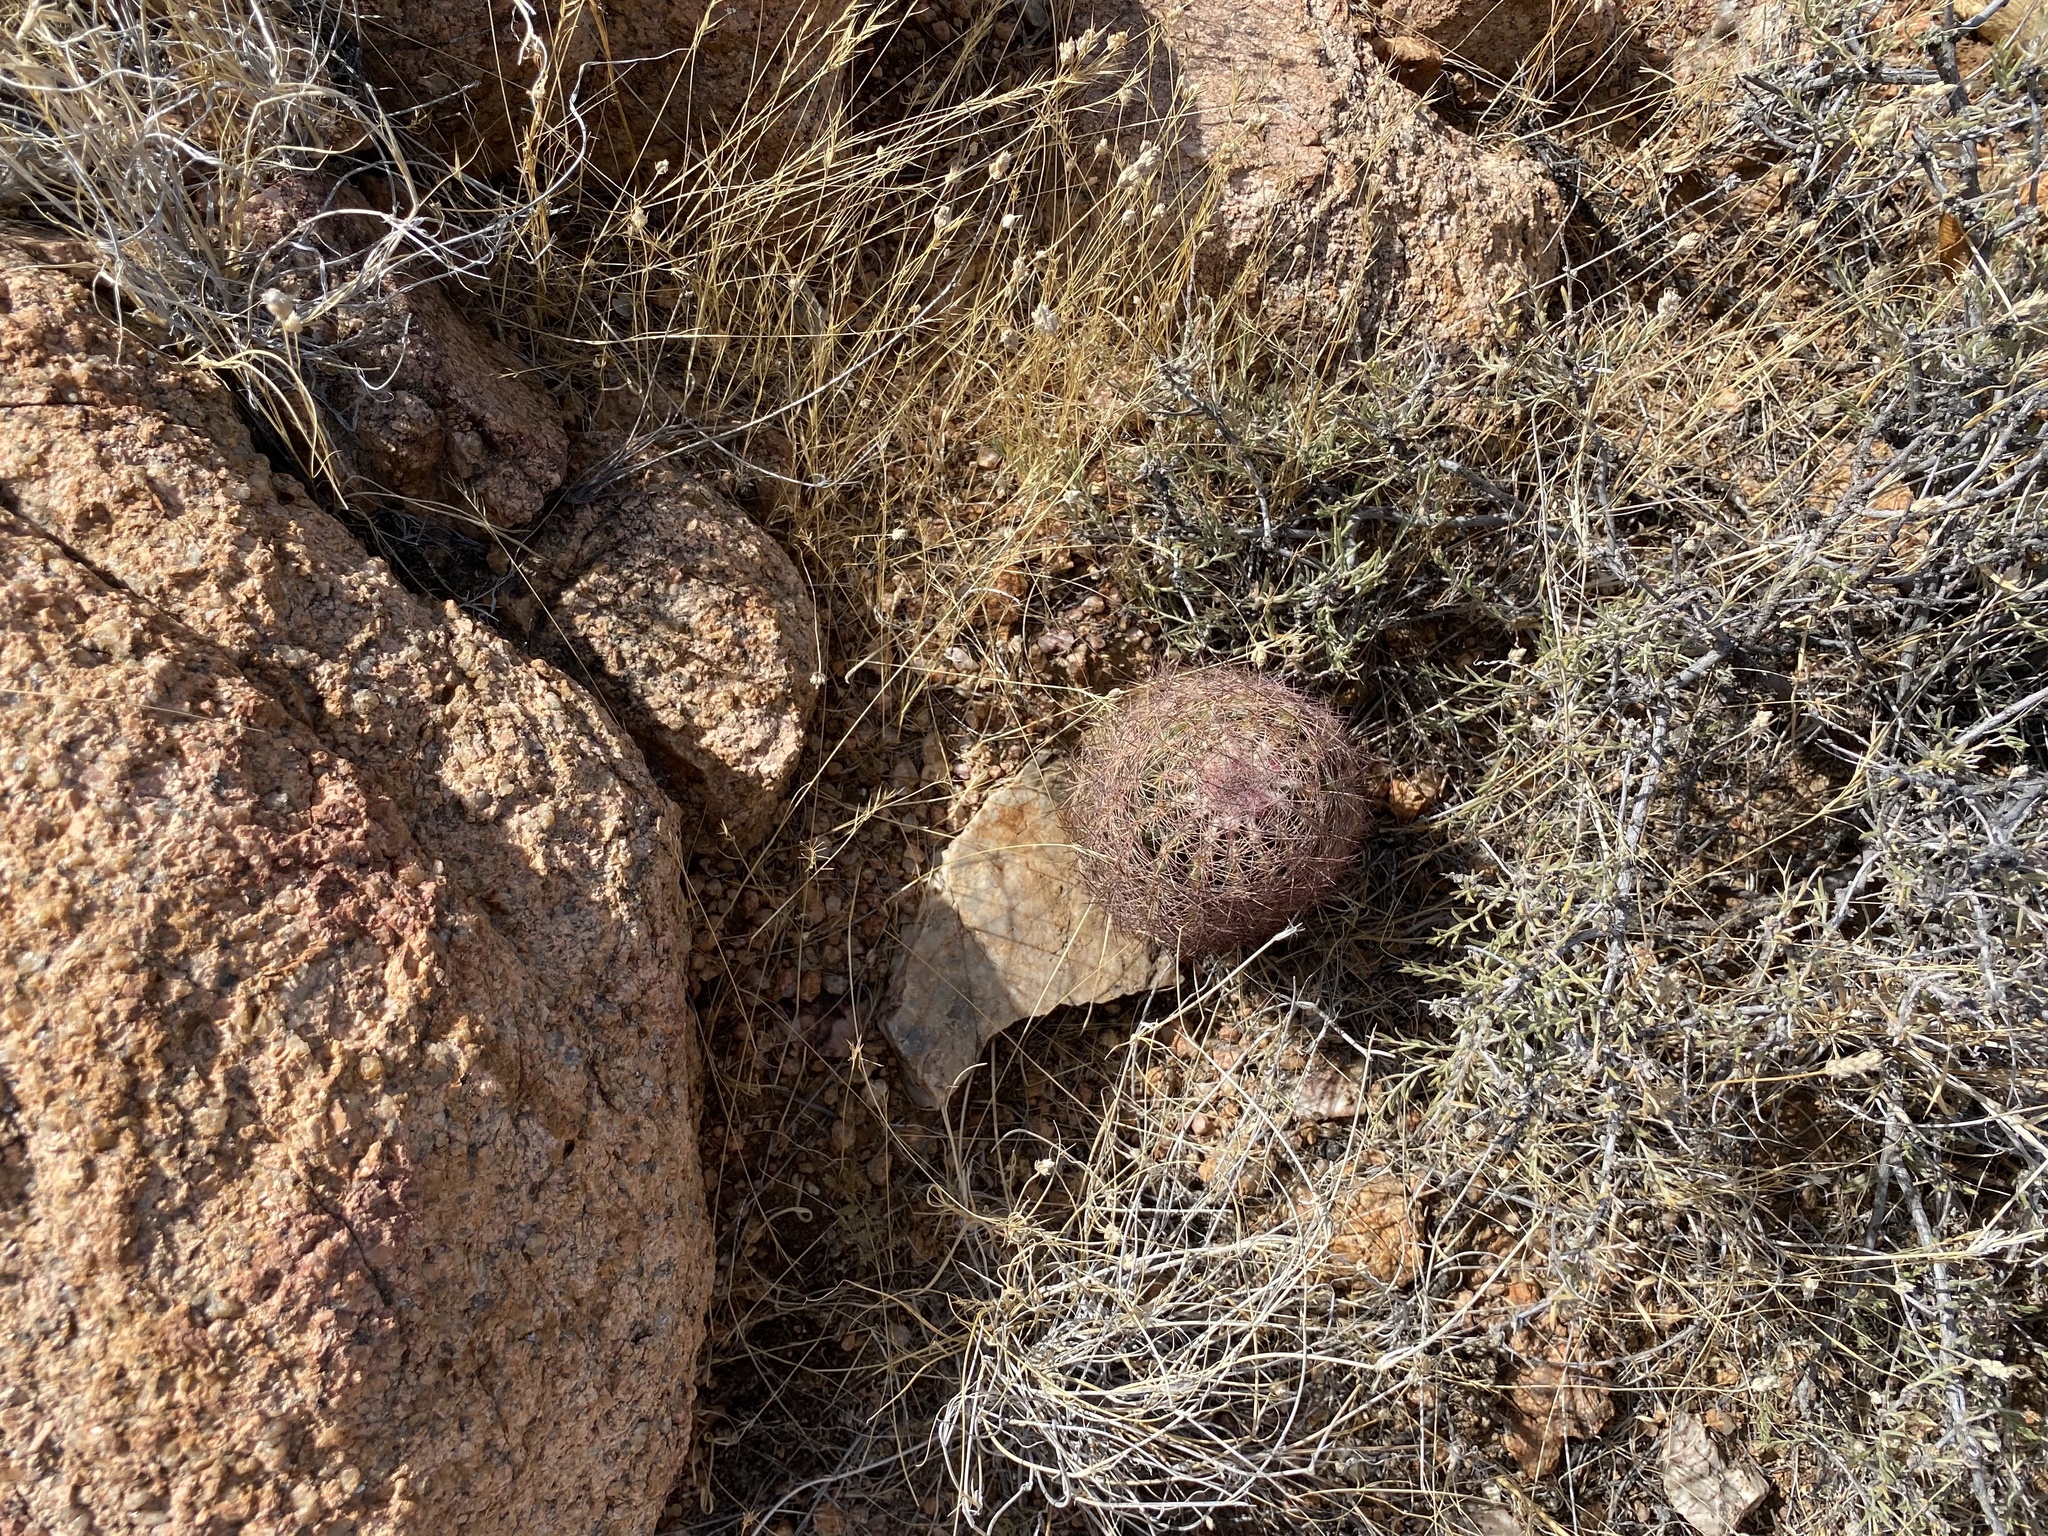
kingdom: Plantae
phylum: Tracheophyta
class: Magnoliopsida
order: Caryophyllales
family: Cactaceae
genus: Sclerocactus
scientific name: Sclerocactus intertextus
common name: White fish-hook cactus
